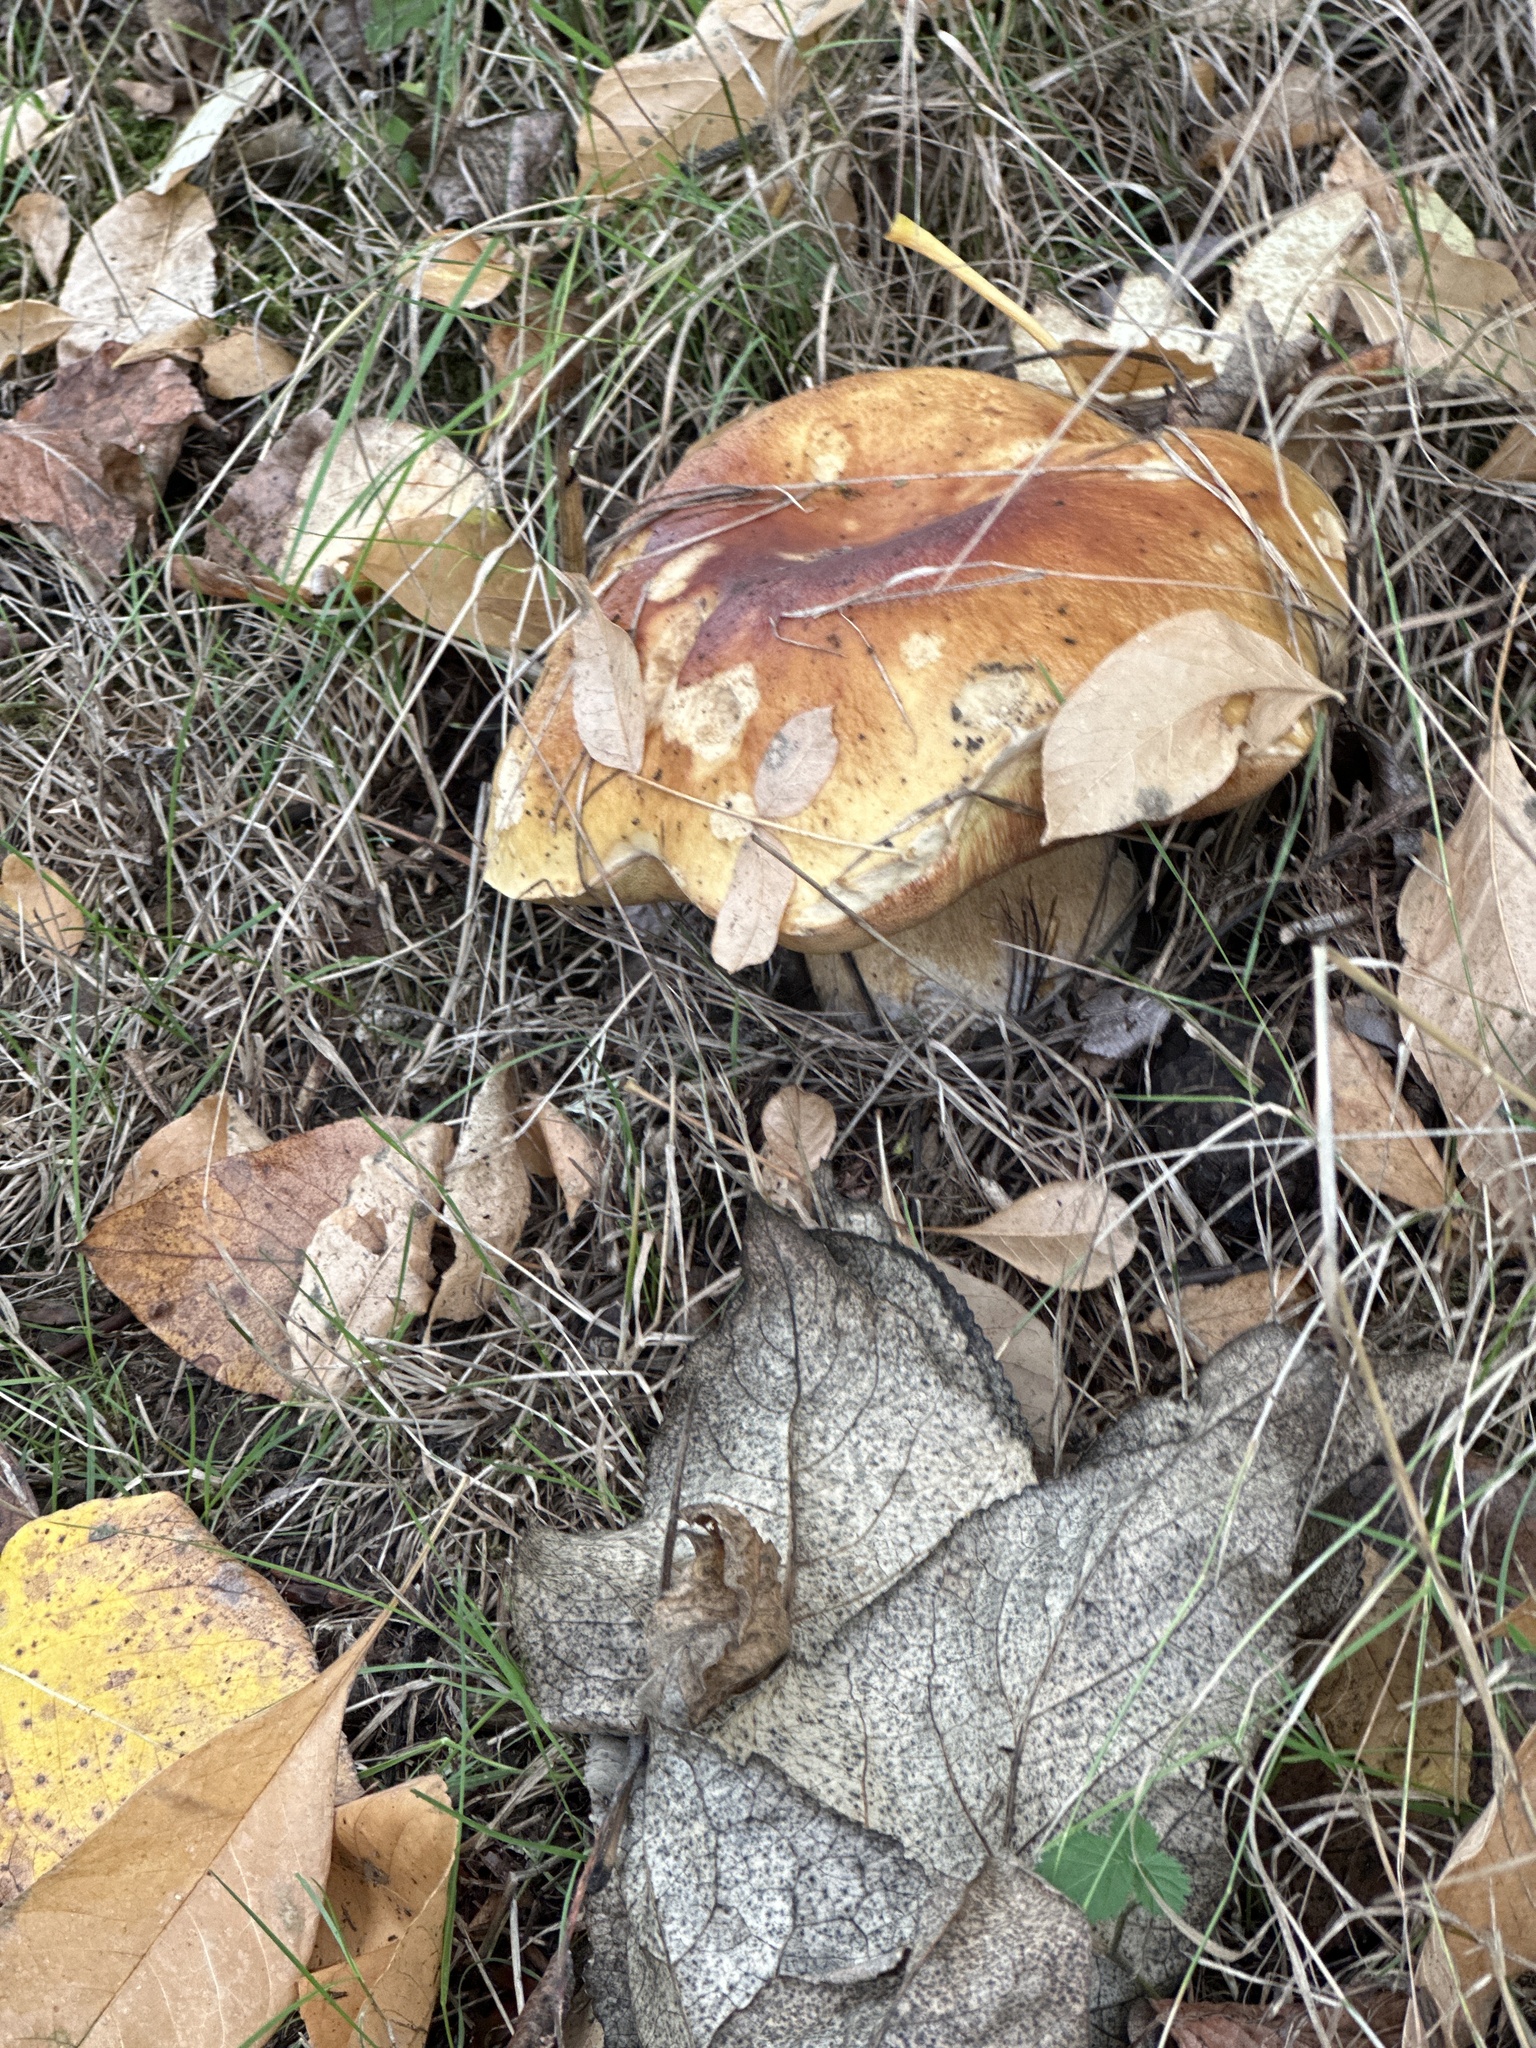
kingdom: Fungi
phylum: Basidiomycota
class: Agaricomycetes
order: Boletales
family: Boletaceae
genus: Boletus
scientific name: Boletus edulis
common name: Cep
